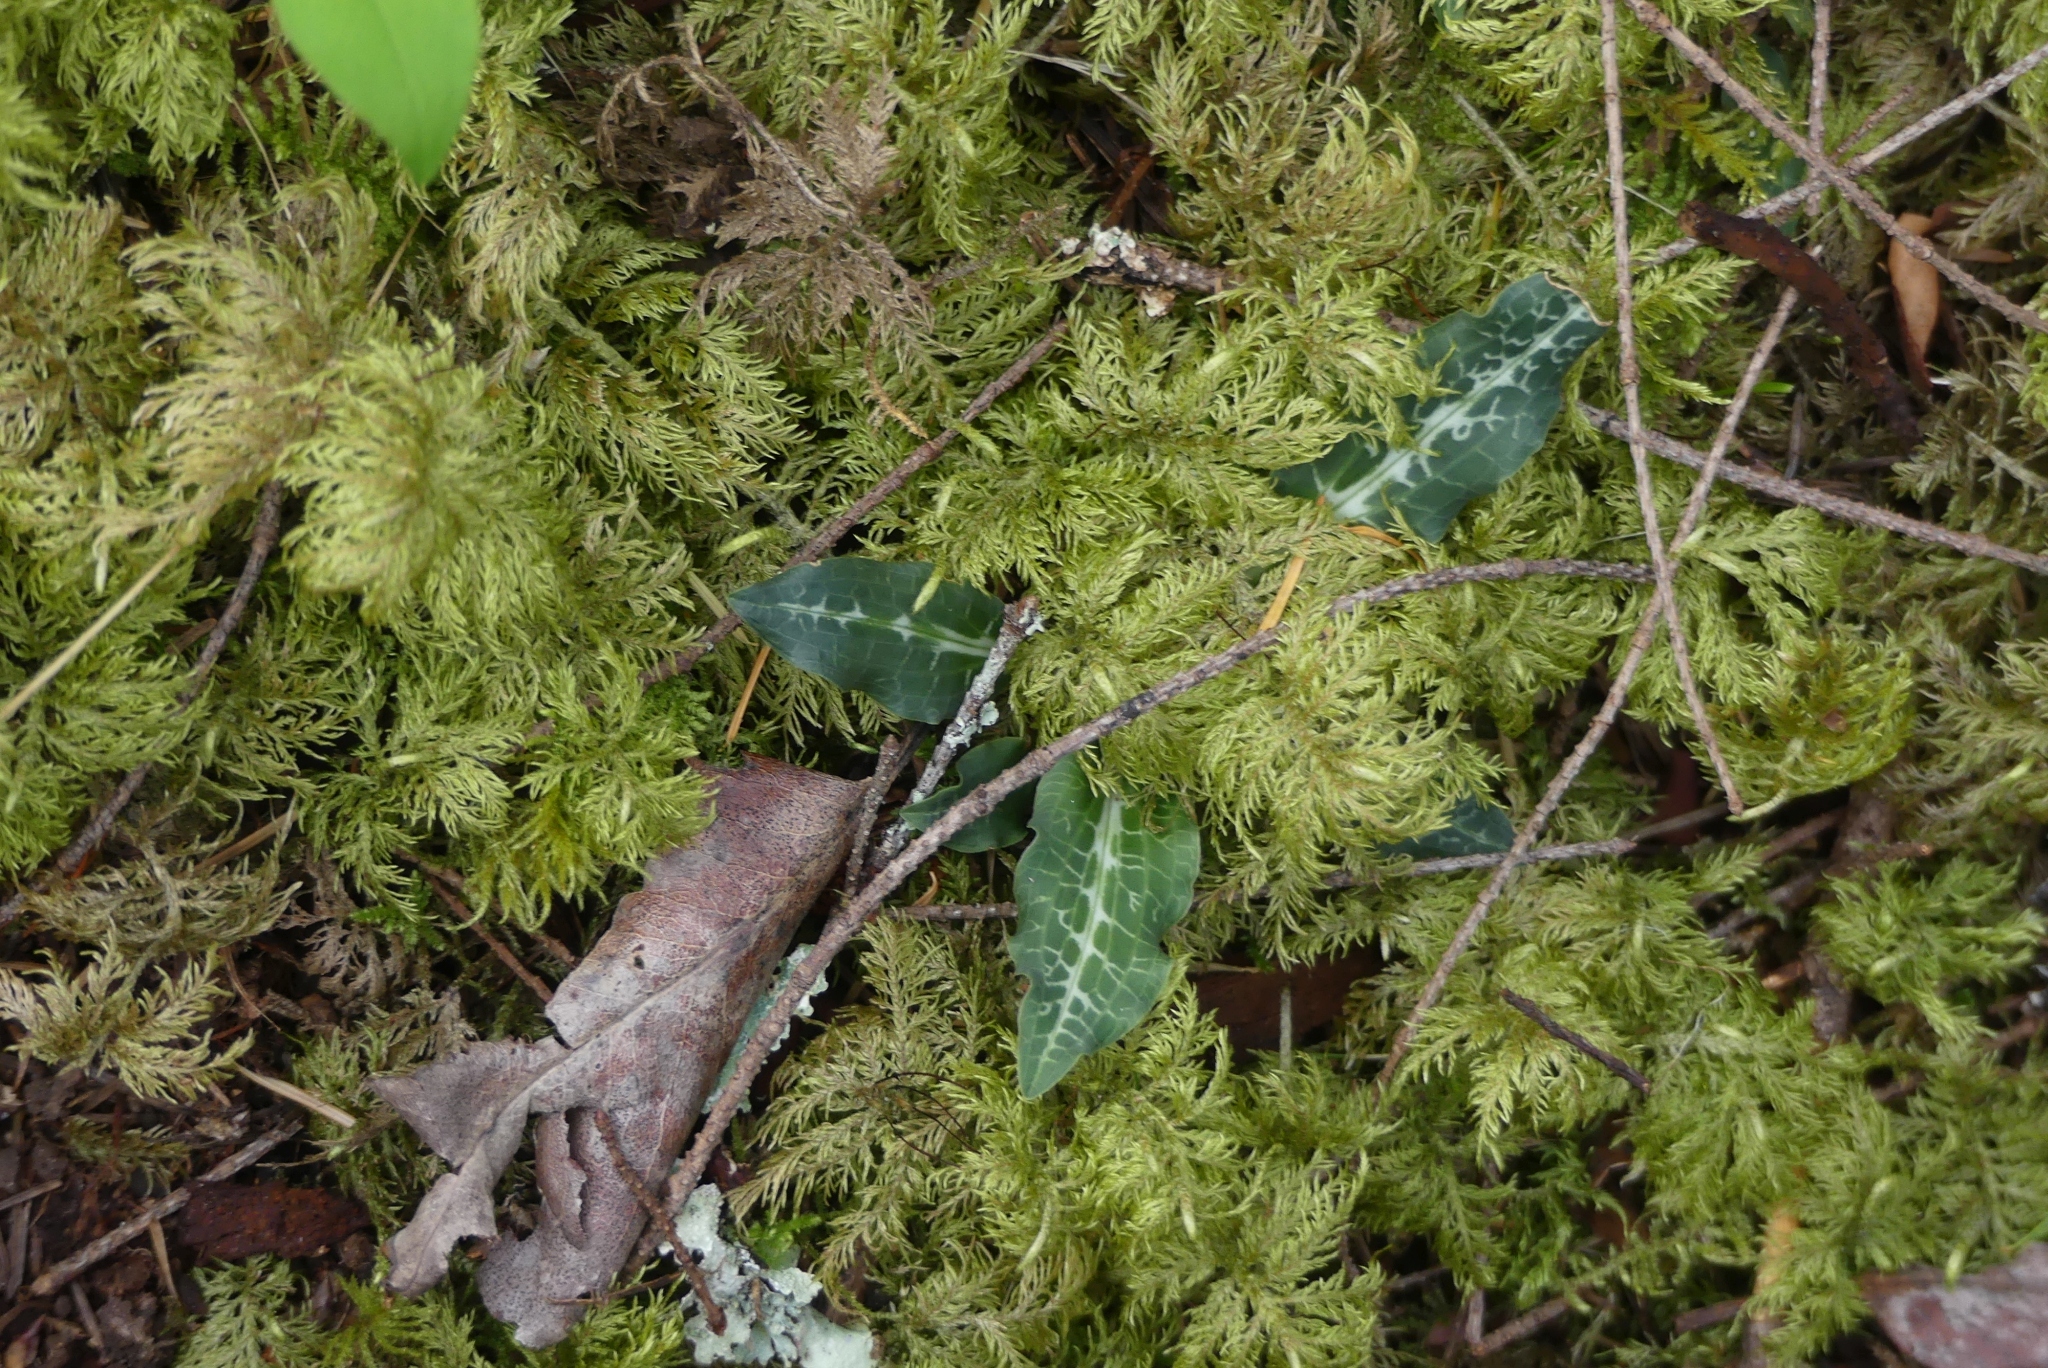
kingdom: Plantae
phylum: Tracheophyta
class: Liliopsida
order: Asparagales
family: Orchidaceae
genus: Goodyera
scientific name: Goodyera oblongifolia
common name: Giant rattlesnake-plantain
